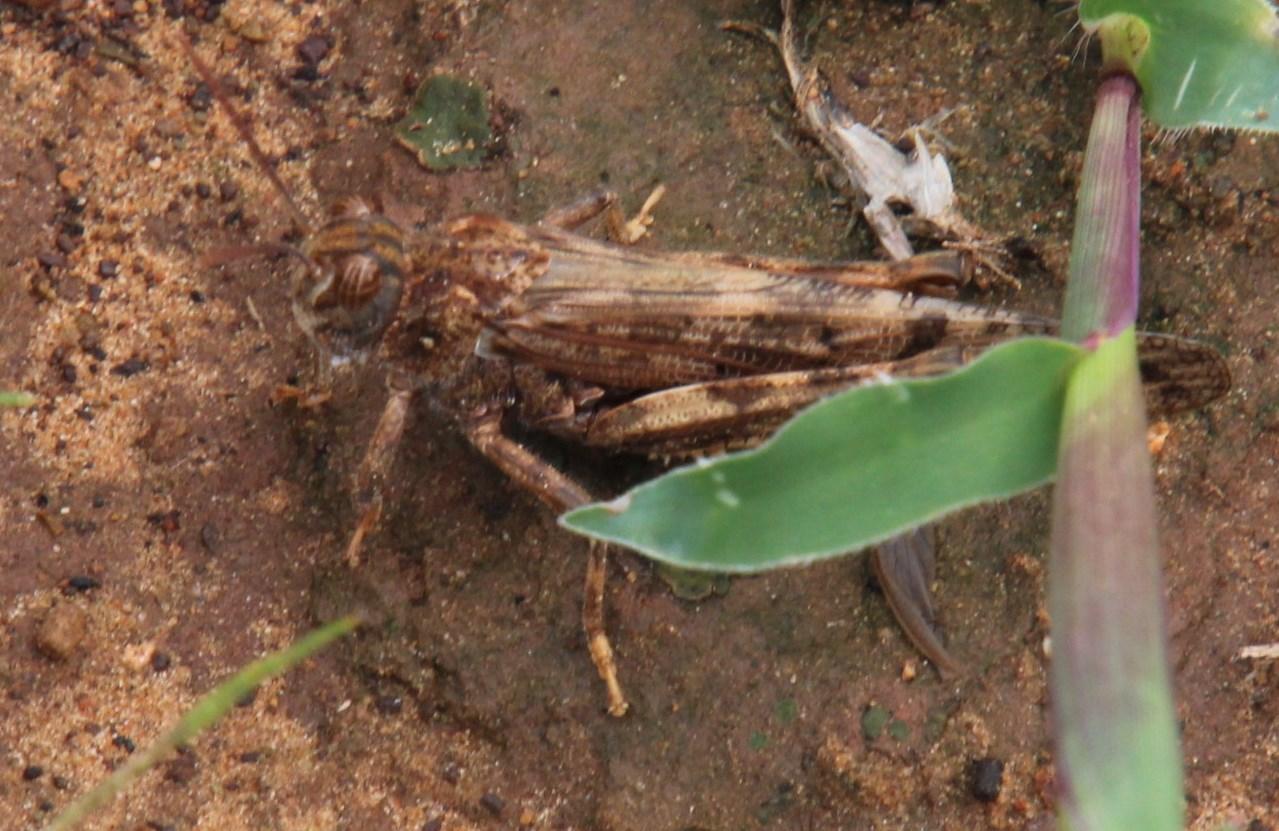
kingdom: Animalia
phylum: Arthropoda
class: Insecta
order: Orthoptera
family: Acrididae
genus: Locustana
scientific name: Locustana pardalina
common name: Brown locust
